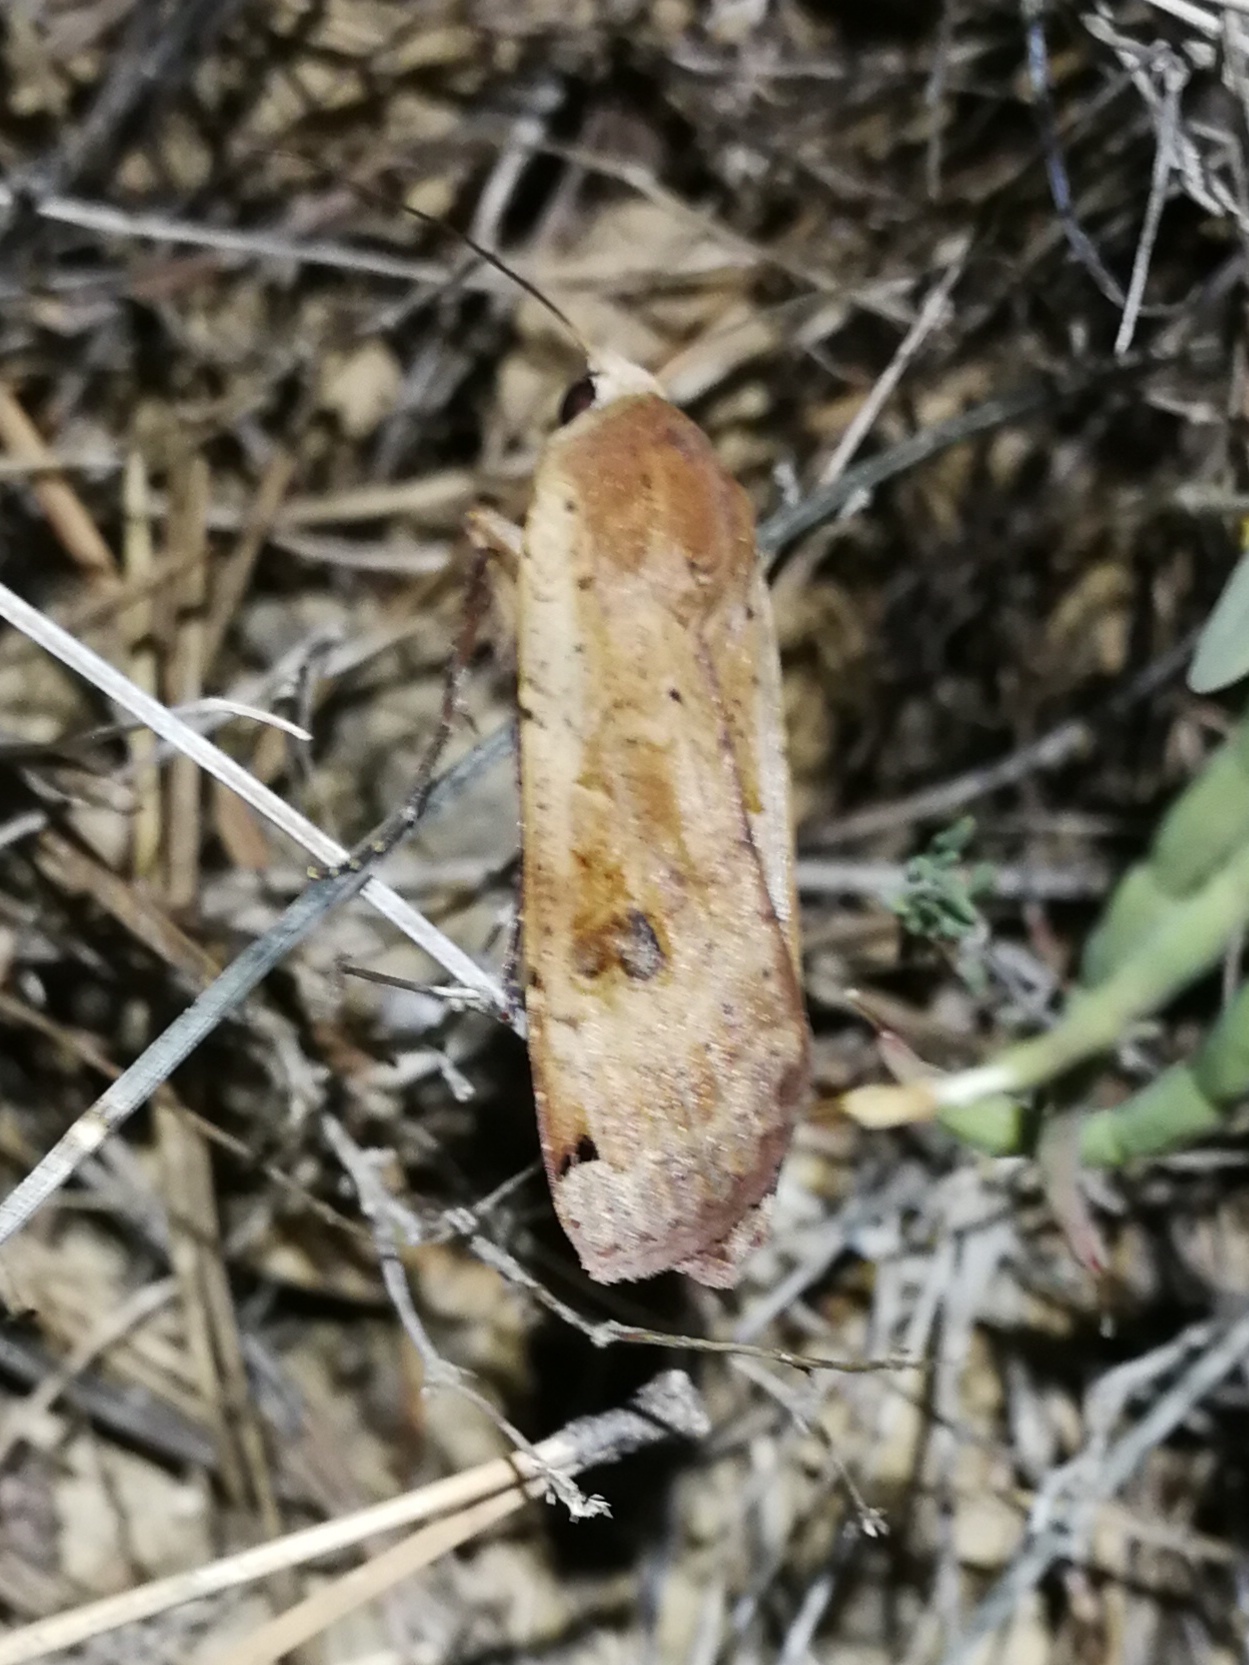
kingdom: Animalia
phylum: Arthropoda
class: Insecta
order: Lepidoptera
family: Noctuidae
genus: Noctua
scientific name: Noctua pronuba
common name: Large yellow underwing
